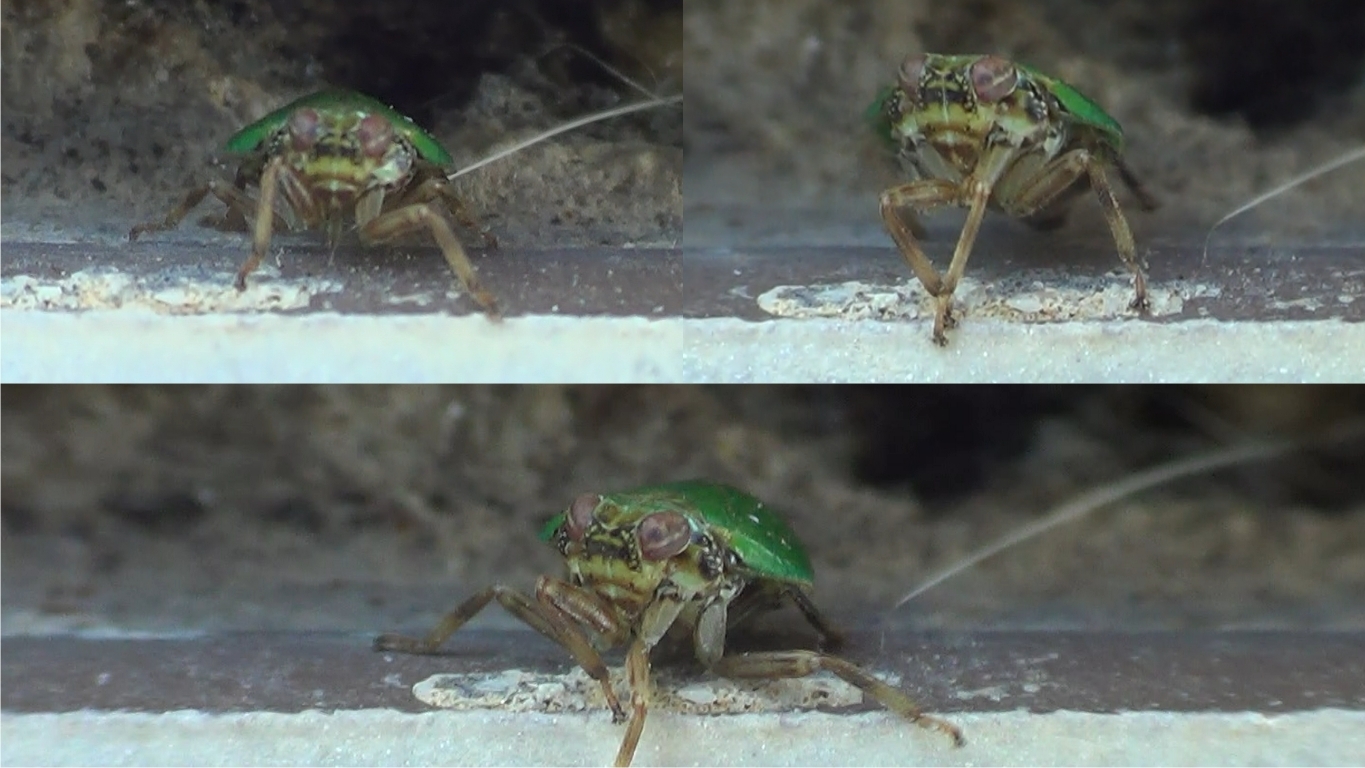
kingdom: Animalia
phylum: Arthropoda
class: Insecta
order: Hemiptera
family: Issidae
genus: Issus
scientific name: Issus lauri
